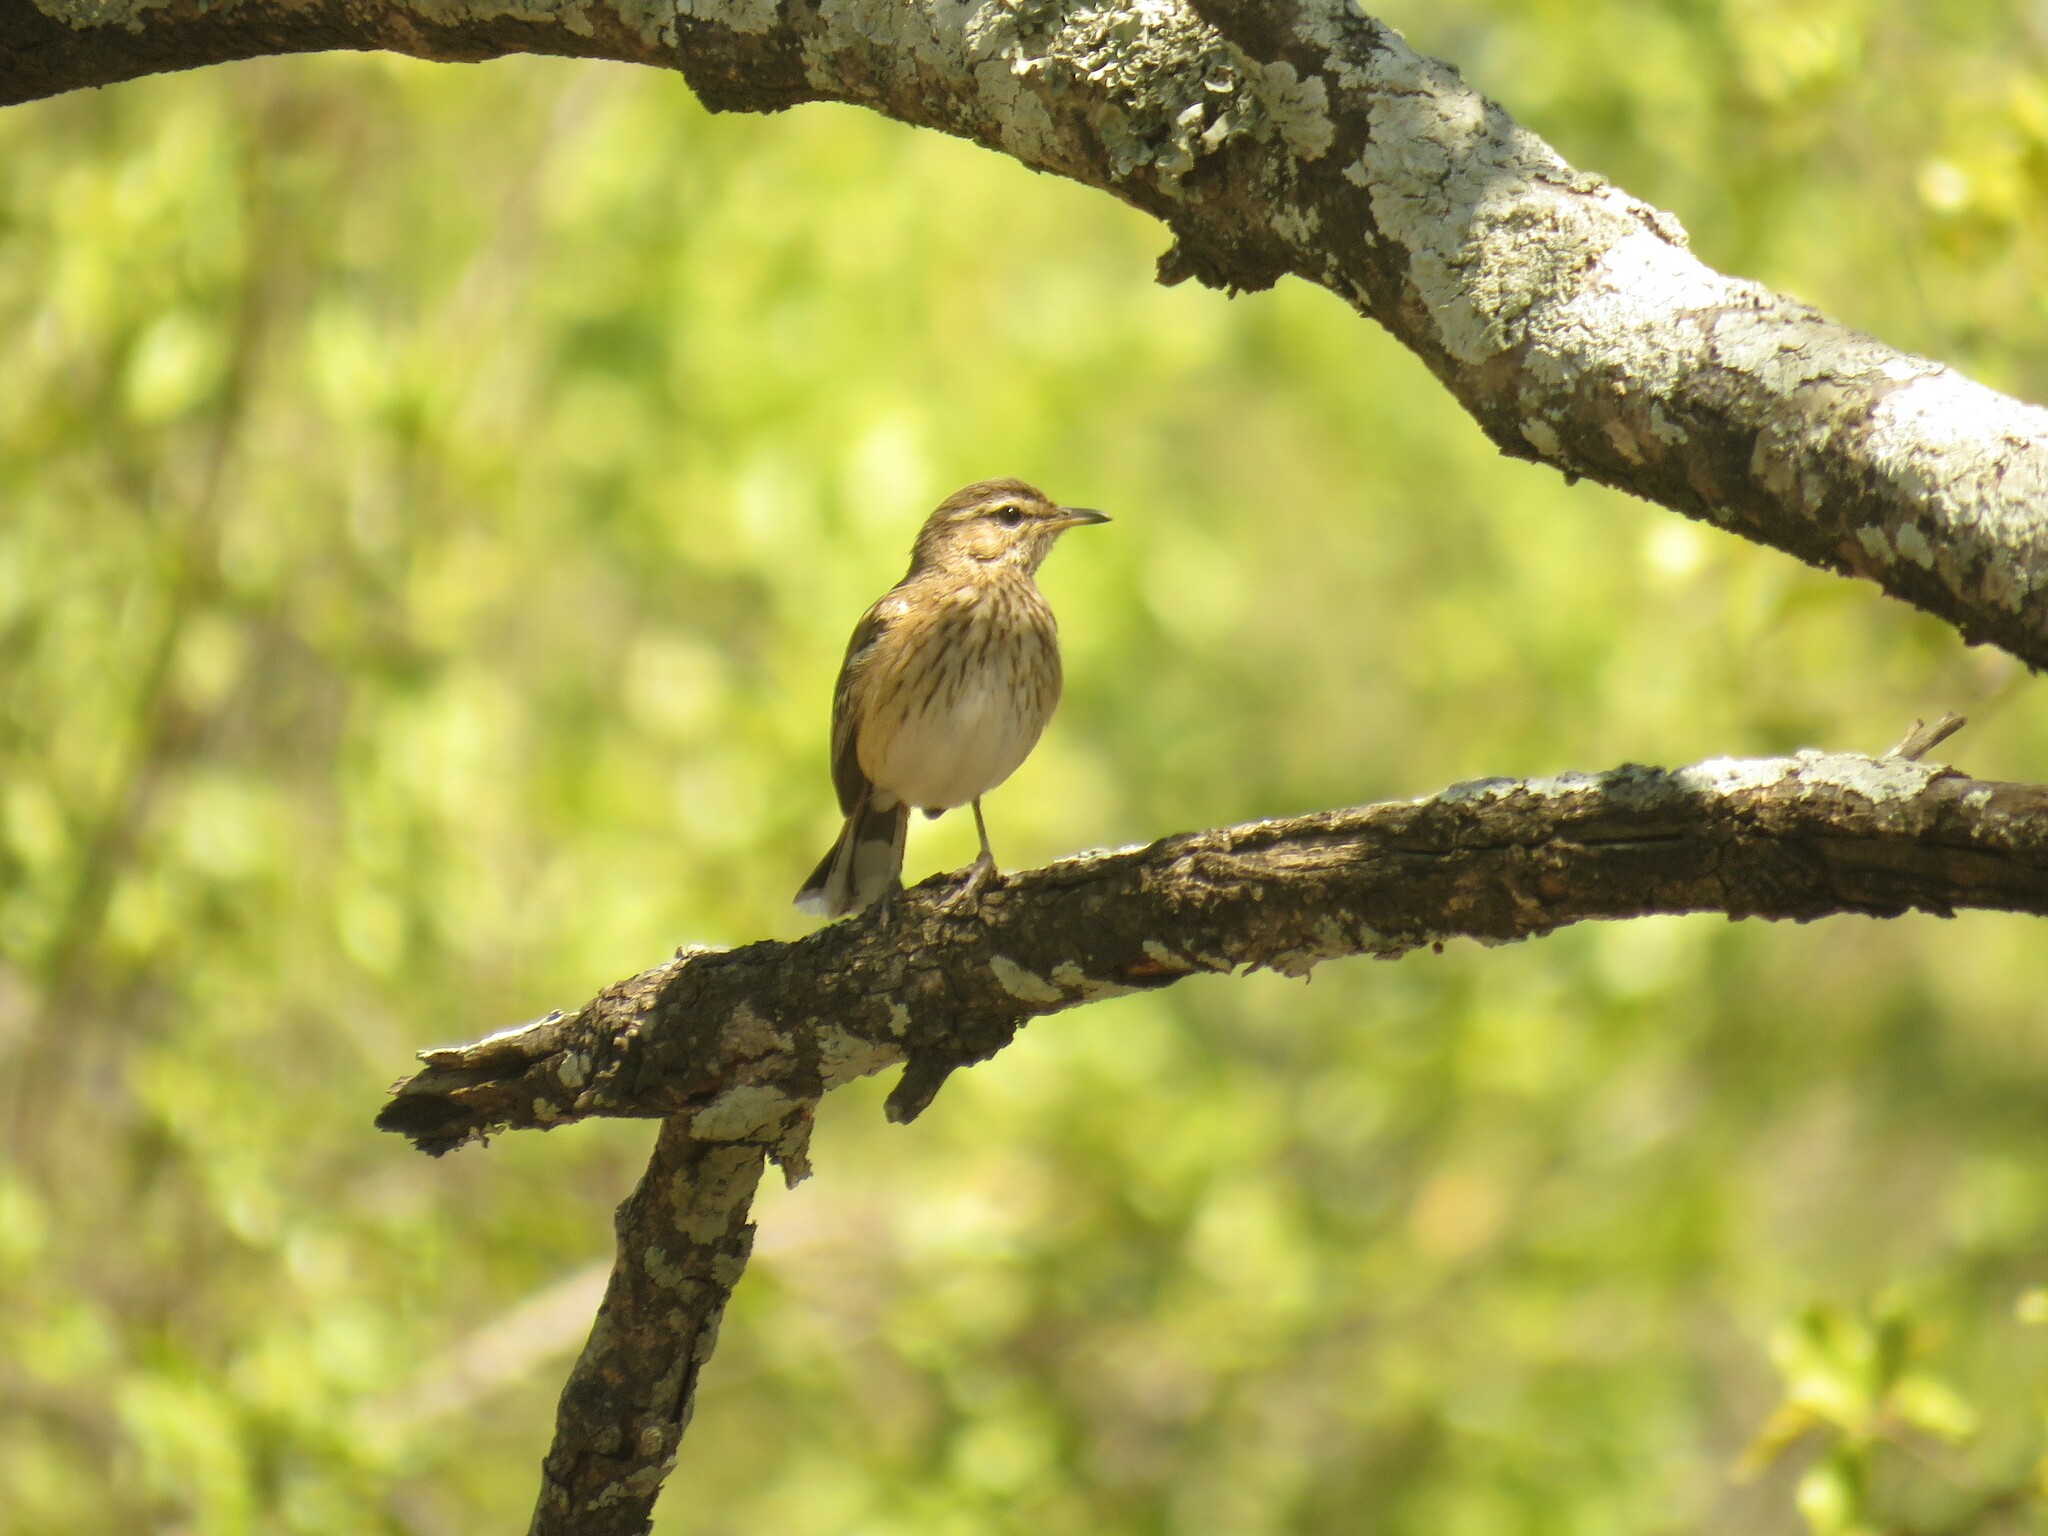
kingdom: Animalia
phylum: Chordata
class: Aves
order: Passeriformes
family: Muscicapidae
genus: Erythropygia
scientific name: Erythropygia leucophrys
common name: White-browed scrub robin
